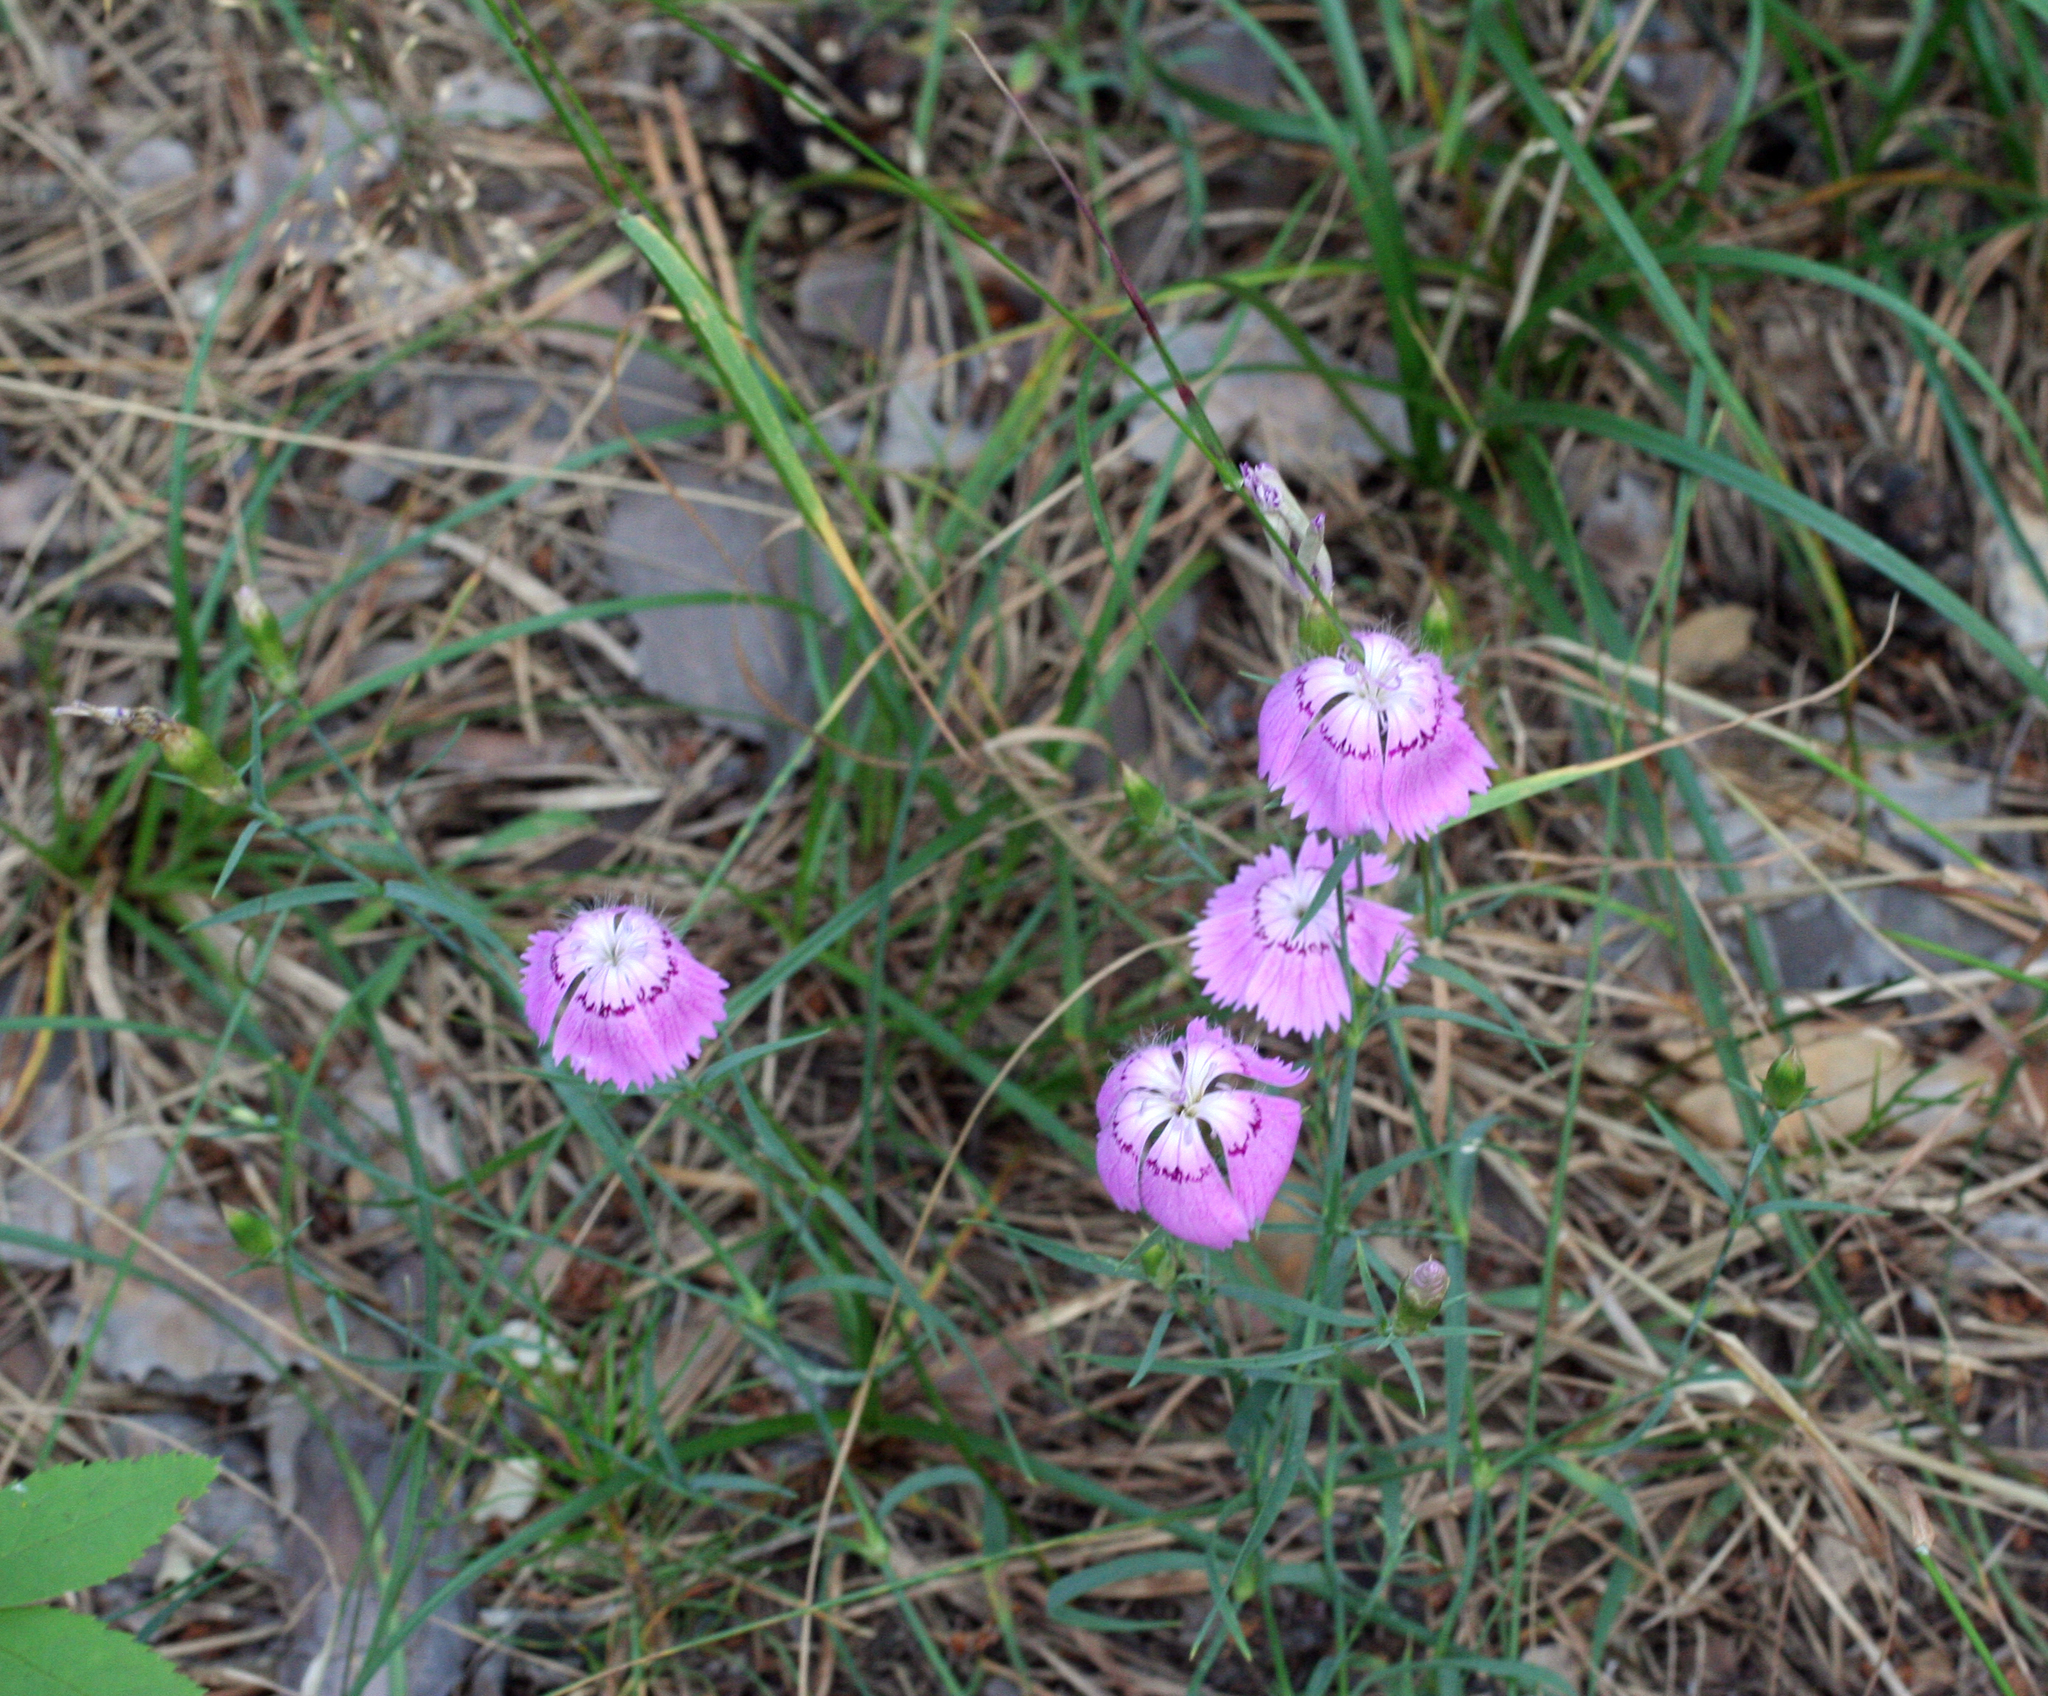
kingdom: Plantae
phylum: Tracheophyta
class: Magnoliopsida
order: Caryophyllales
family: Caryophyllaceae
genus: Dianthus
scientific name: Dianthus chinensis
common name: Rainbow pink
